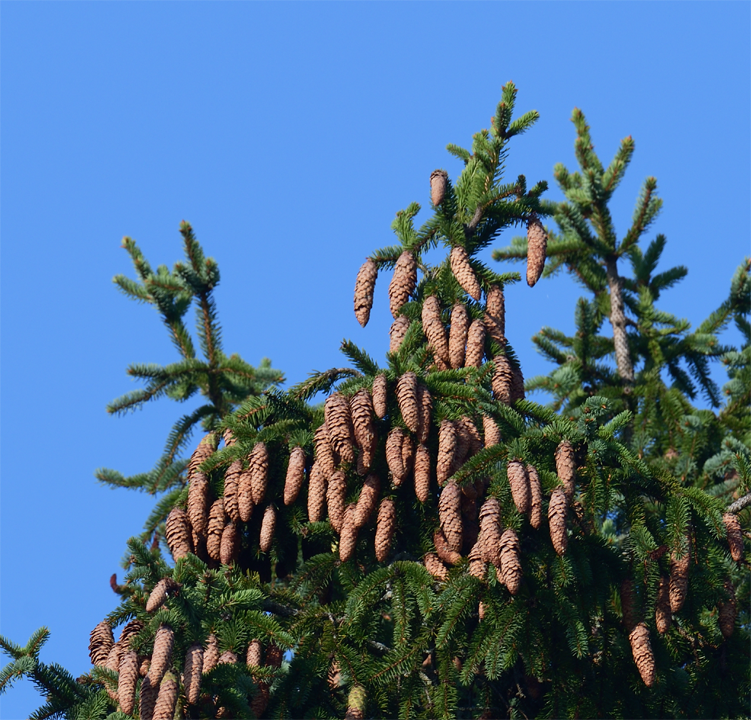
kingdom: Plantae
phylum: Tracheophyta
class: Pinopsida
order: Pinales
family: Pinaceae
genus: Picea
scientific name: Picea abies
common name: Norway spruce
